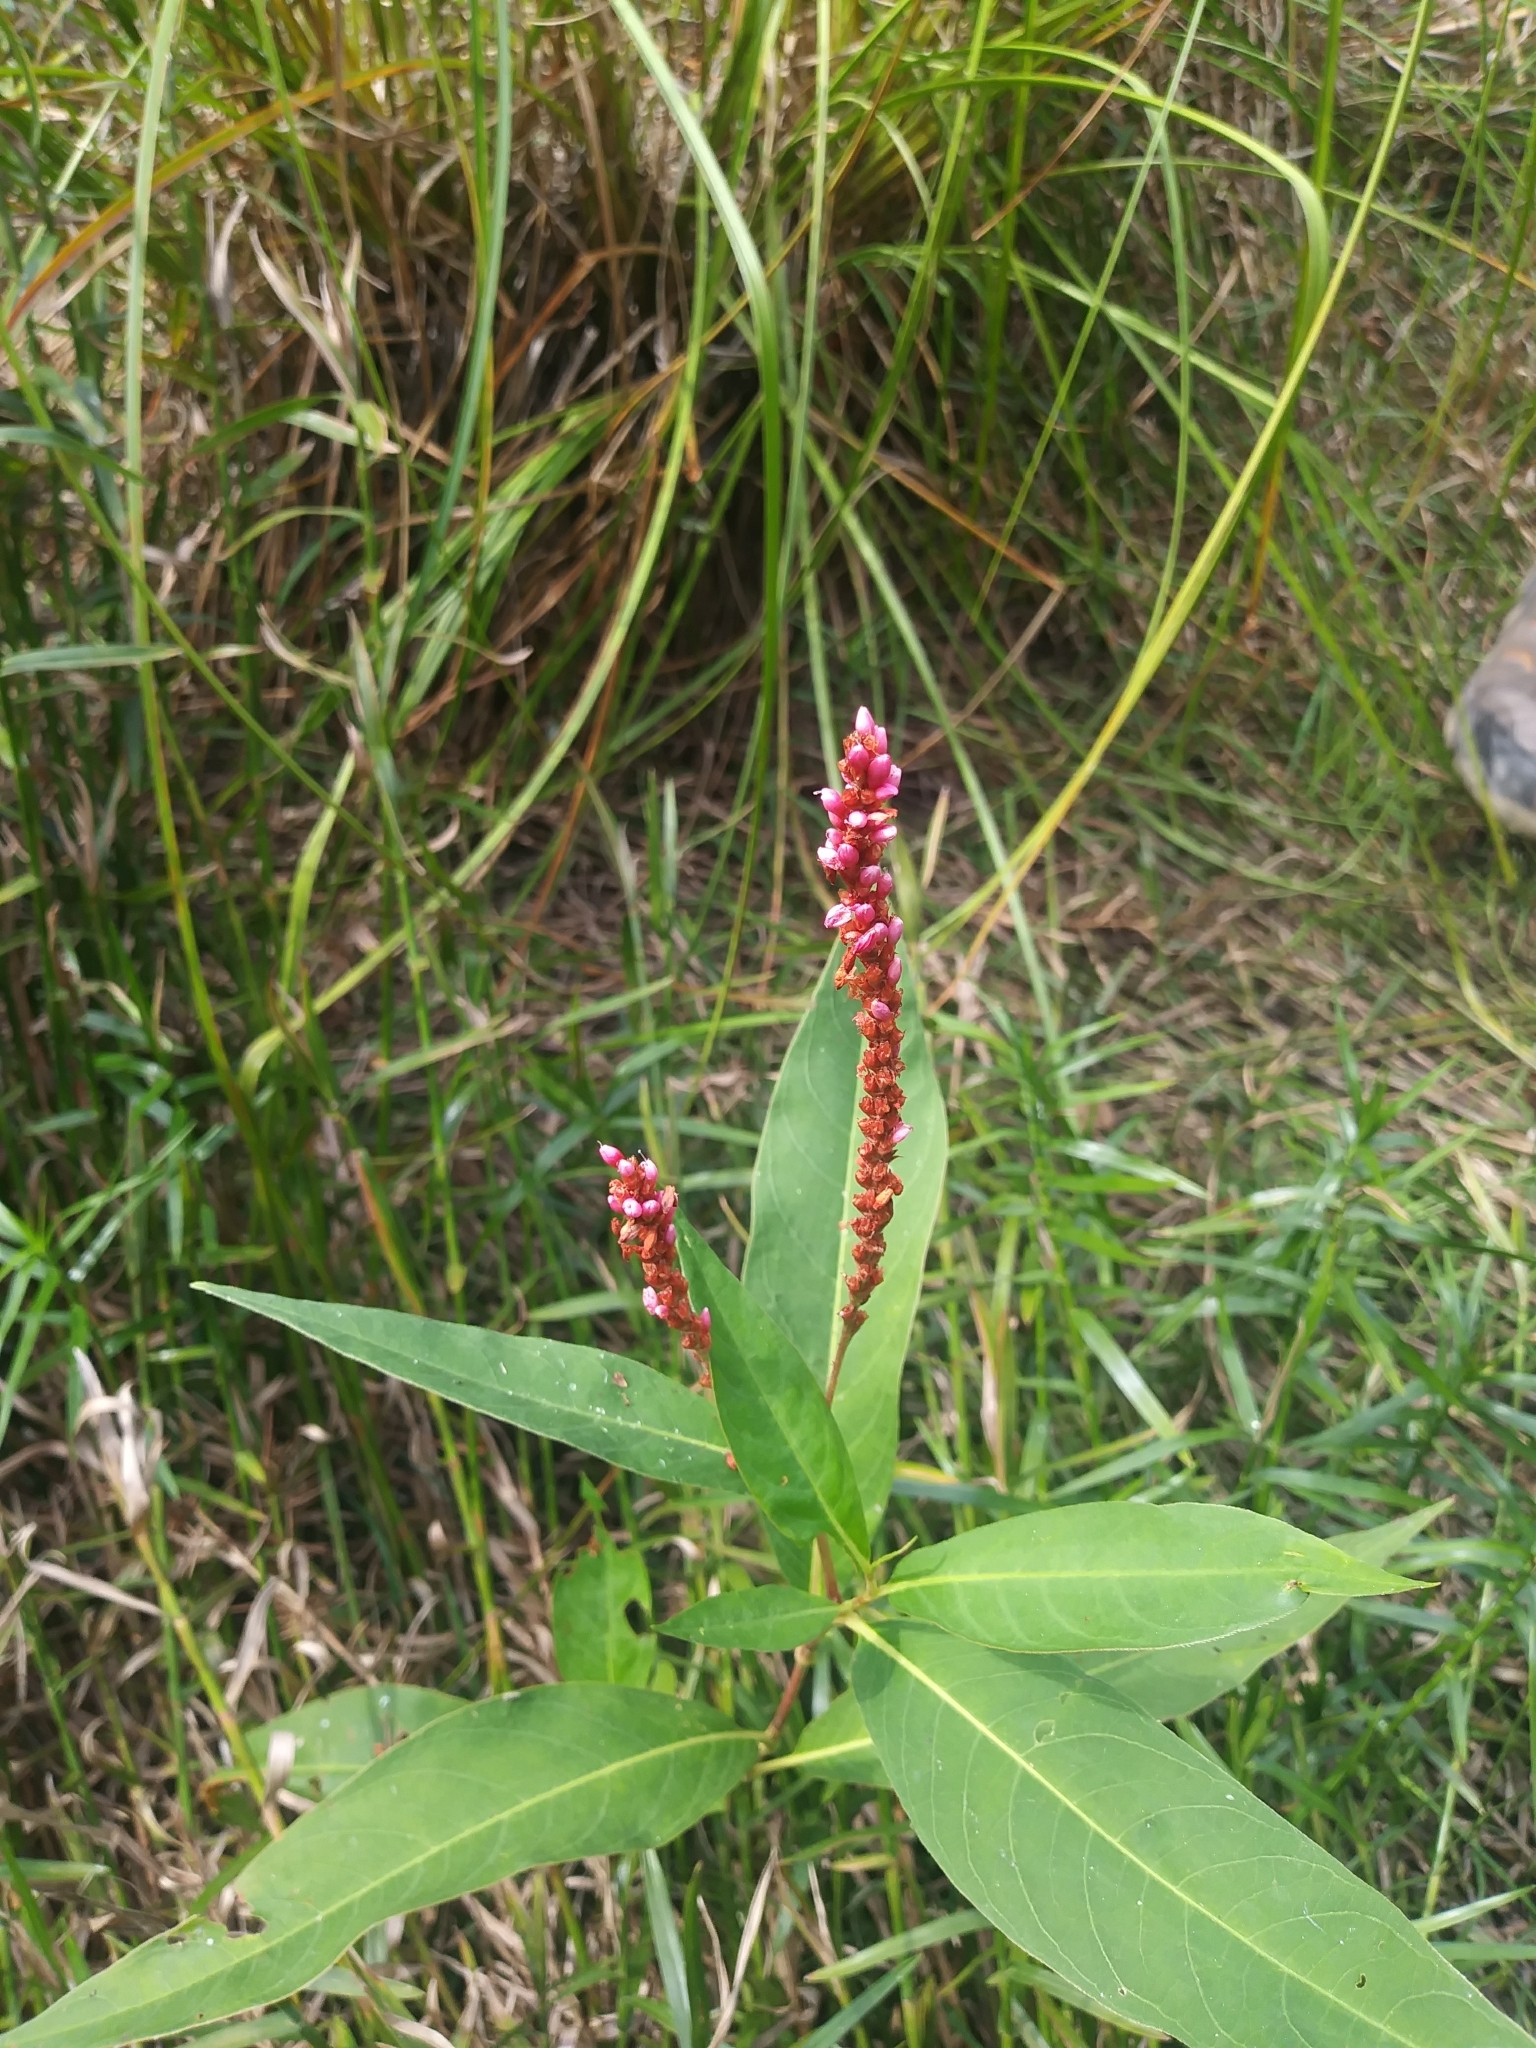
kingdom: Plantae
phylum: Tracheophyta
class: Magnoliopsida
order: Caryophyllales
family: Polygonaceae
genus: Persicaria
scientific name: Persicaria amphibia
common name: Amphibious bistort
